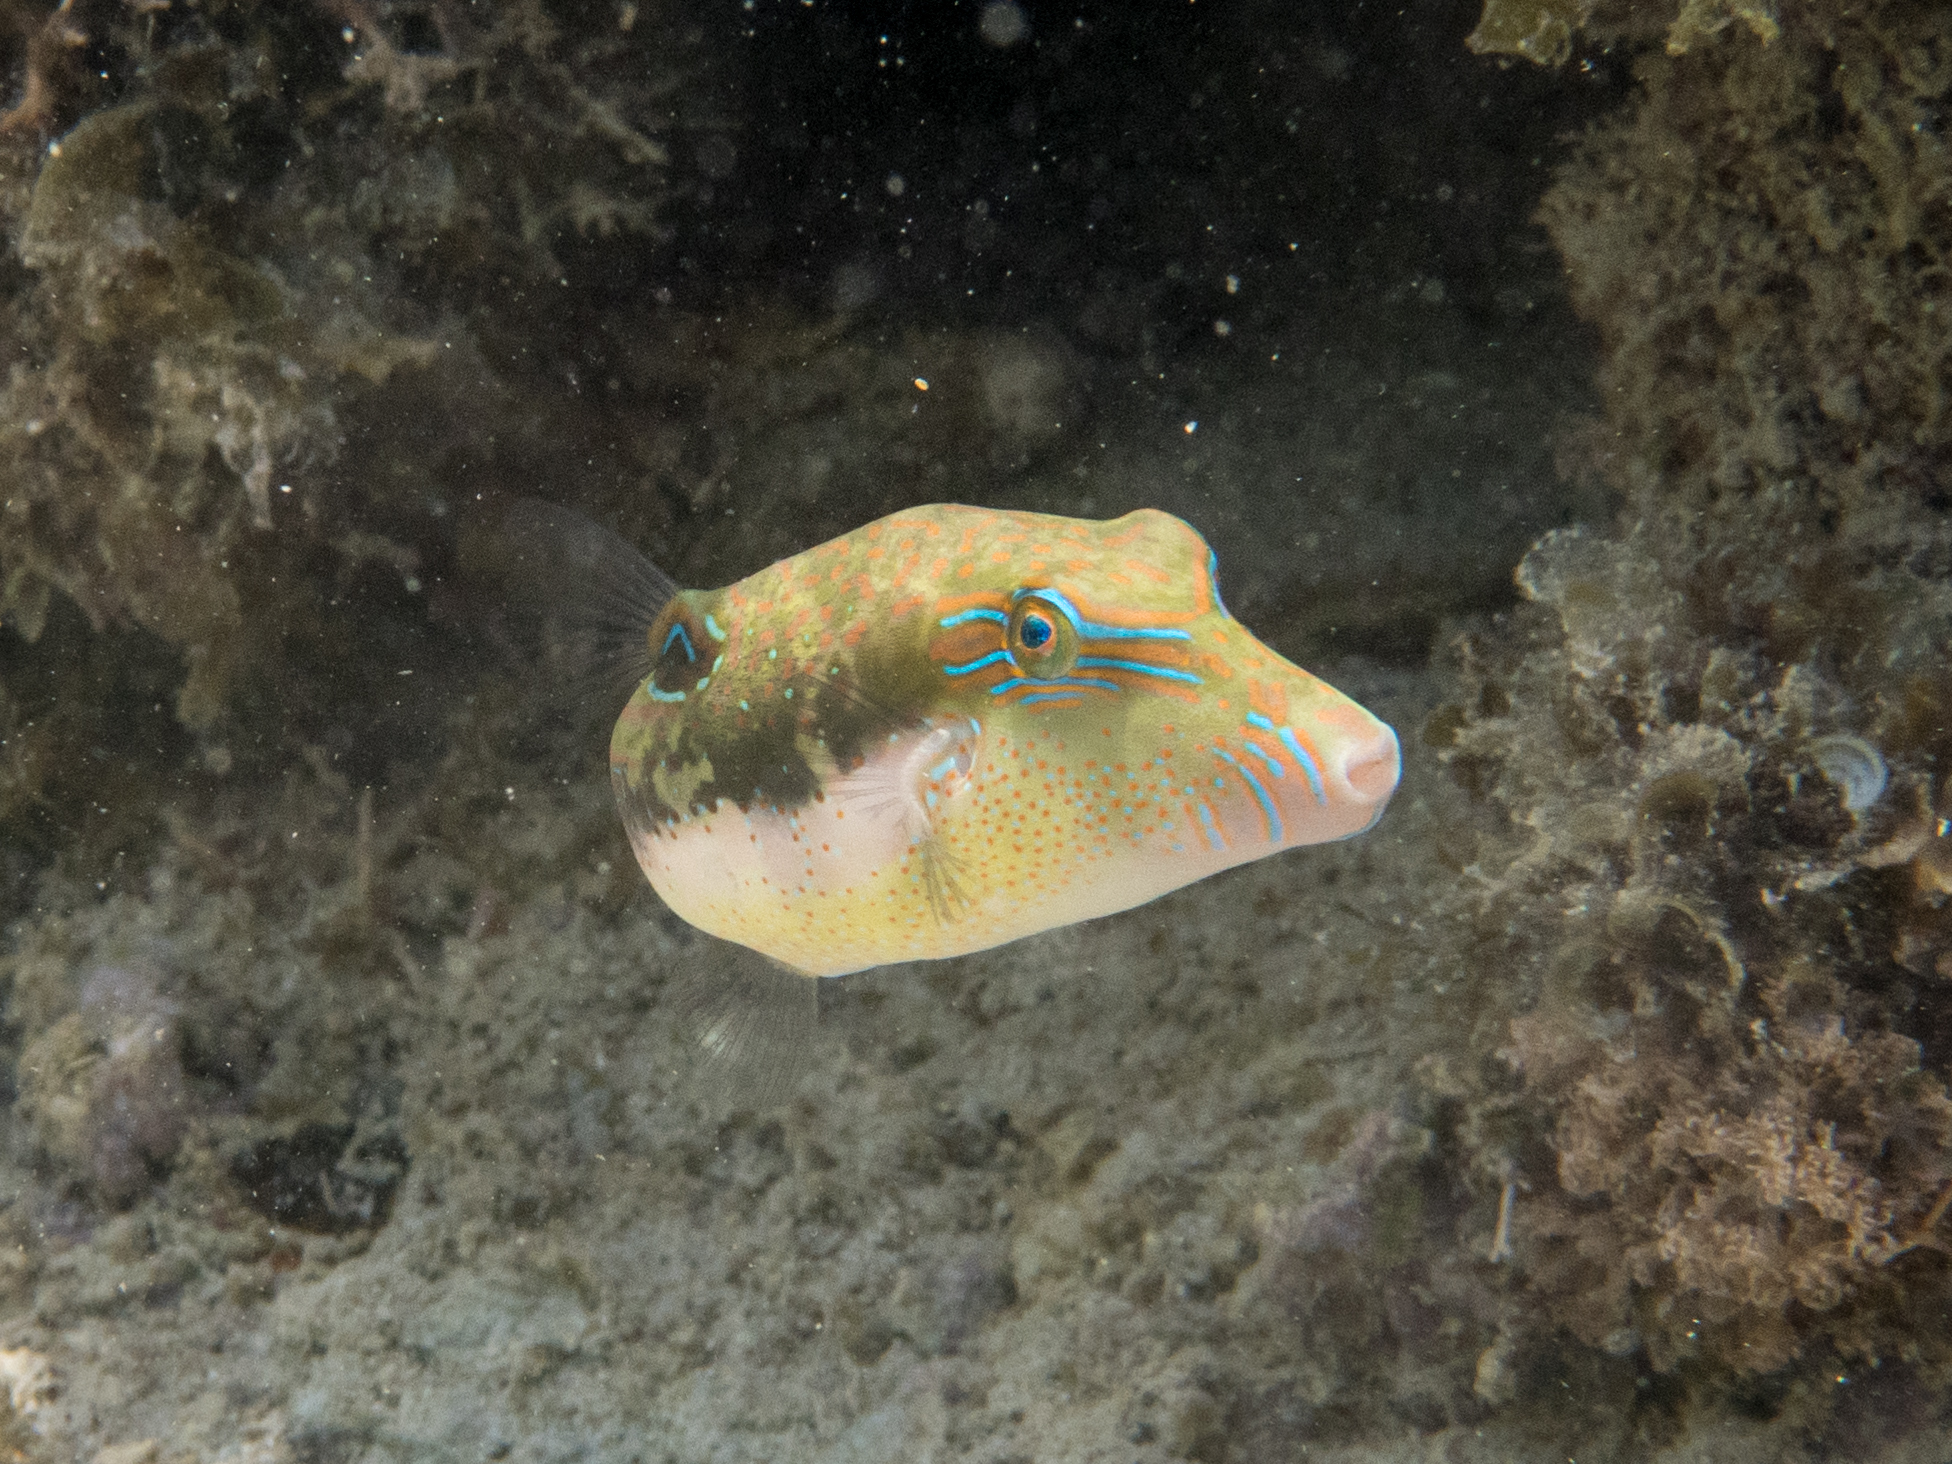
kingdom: Animalia
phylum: Chordata
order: Tetraodontiformes
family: Tetraodontidae
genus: Canthigaster
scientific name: Canthigaster bennetti
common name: Bennett's pufferfish
